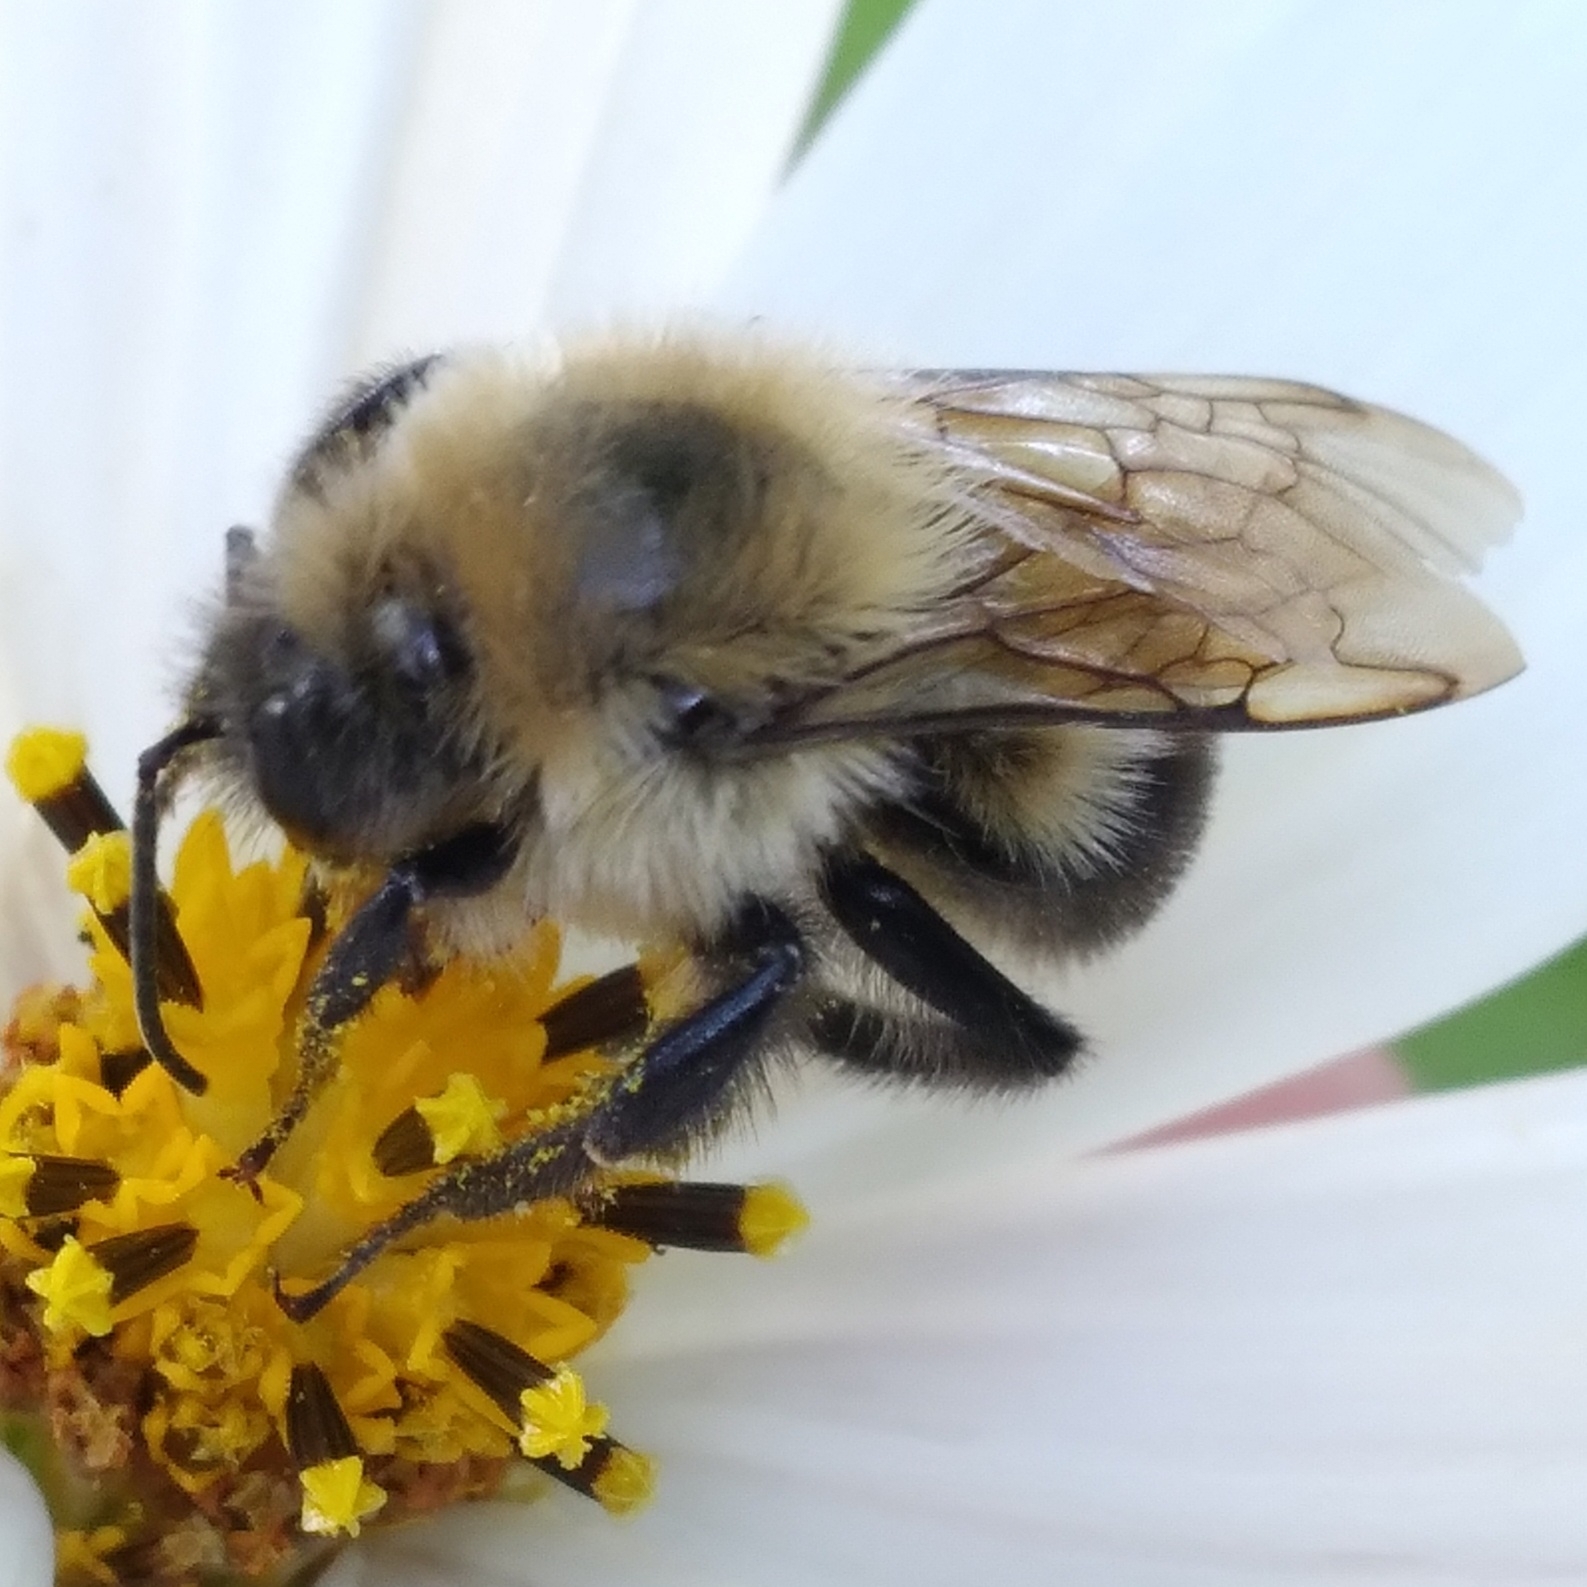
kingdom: Animalia
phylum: Arthropoda
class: Insecta
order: Hymenoptera
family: Apidae
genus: Bombus
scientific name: Bombus bimaculatus
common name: Two-spotted bumble bee
